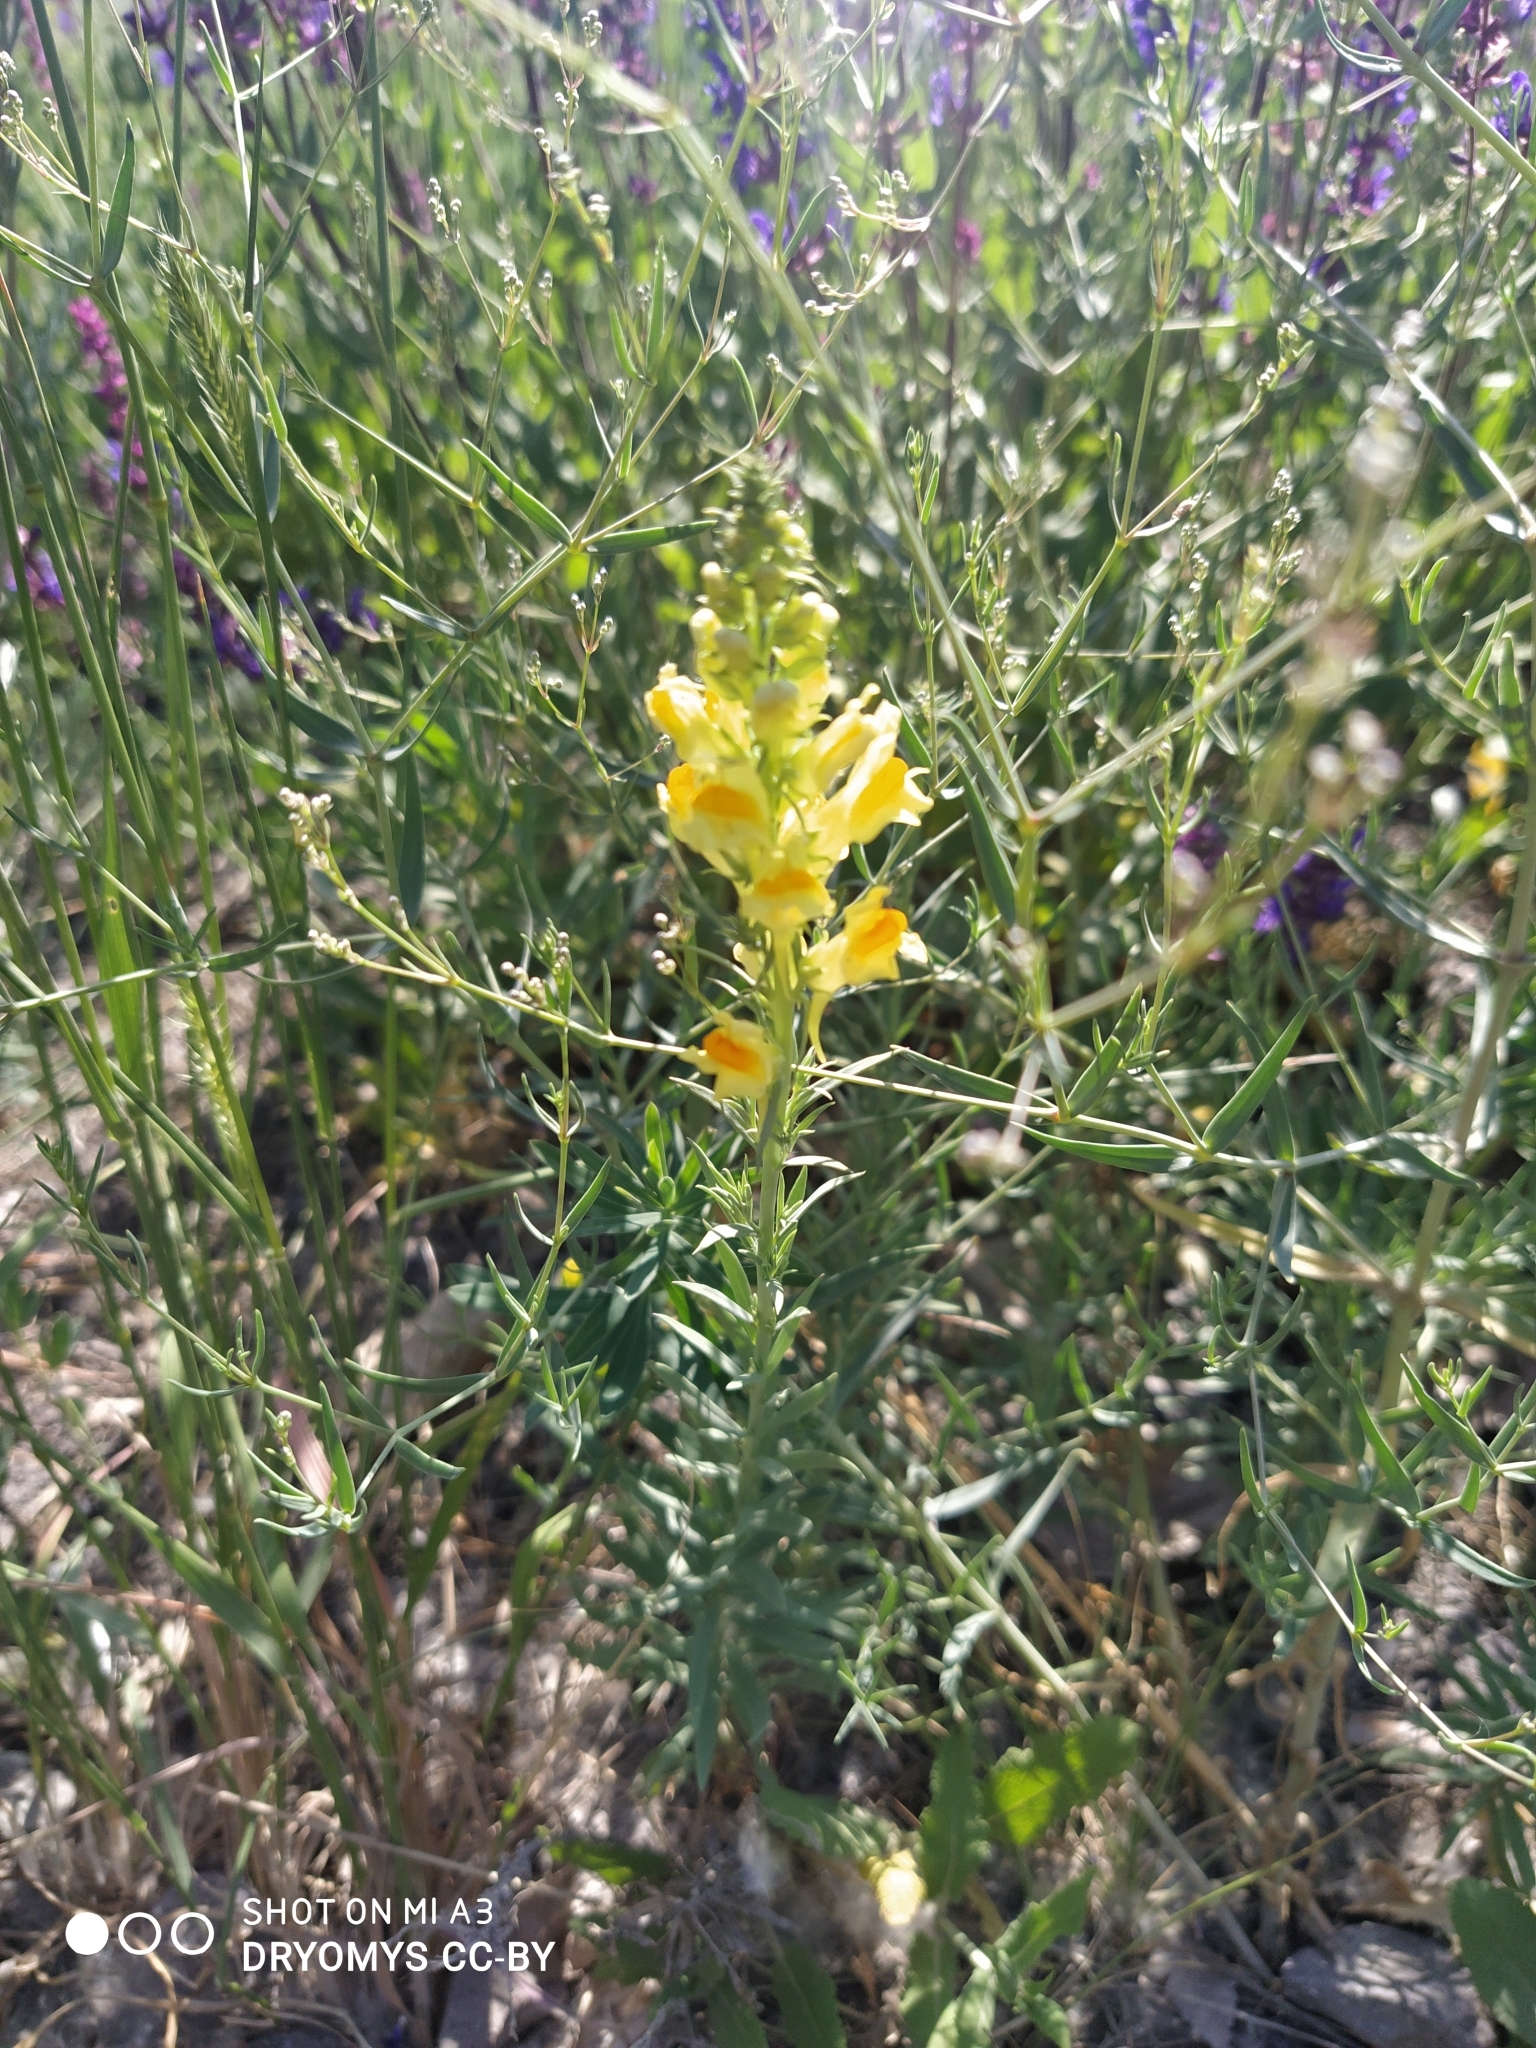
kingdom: Plantae
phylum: Tracheophyta
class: Magnoliopsida
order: Lamiales
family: Plantaginaceae
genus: Linaria
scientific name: Linaria vulgaris
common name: Butter and eggs
